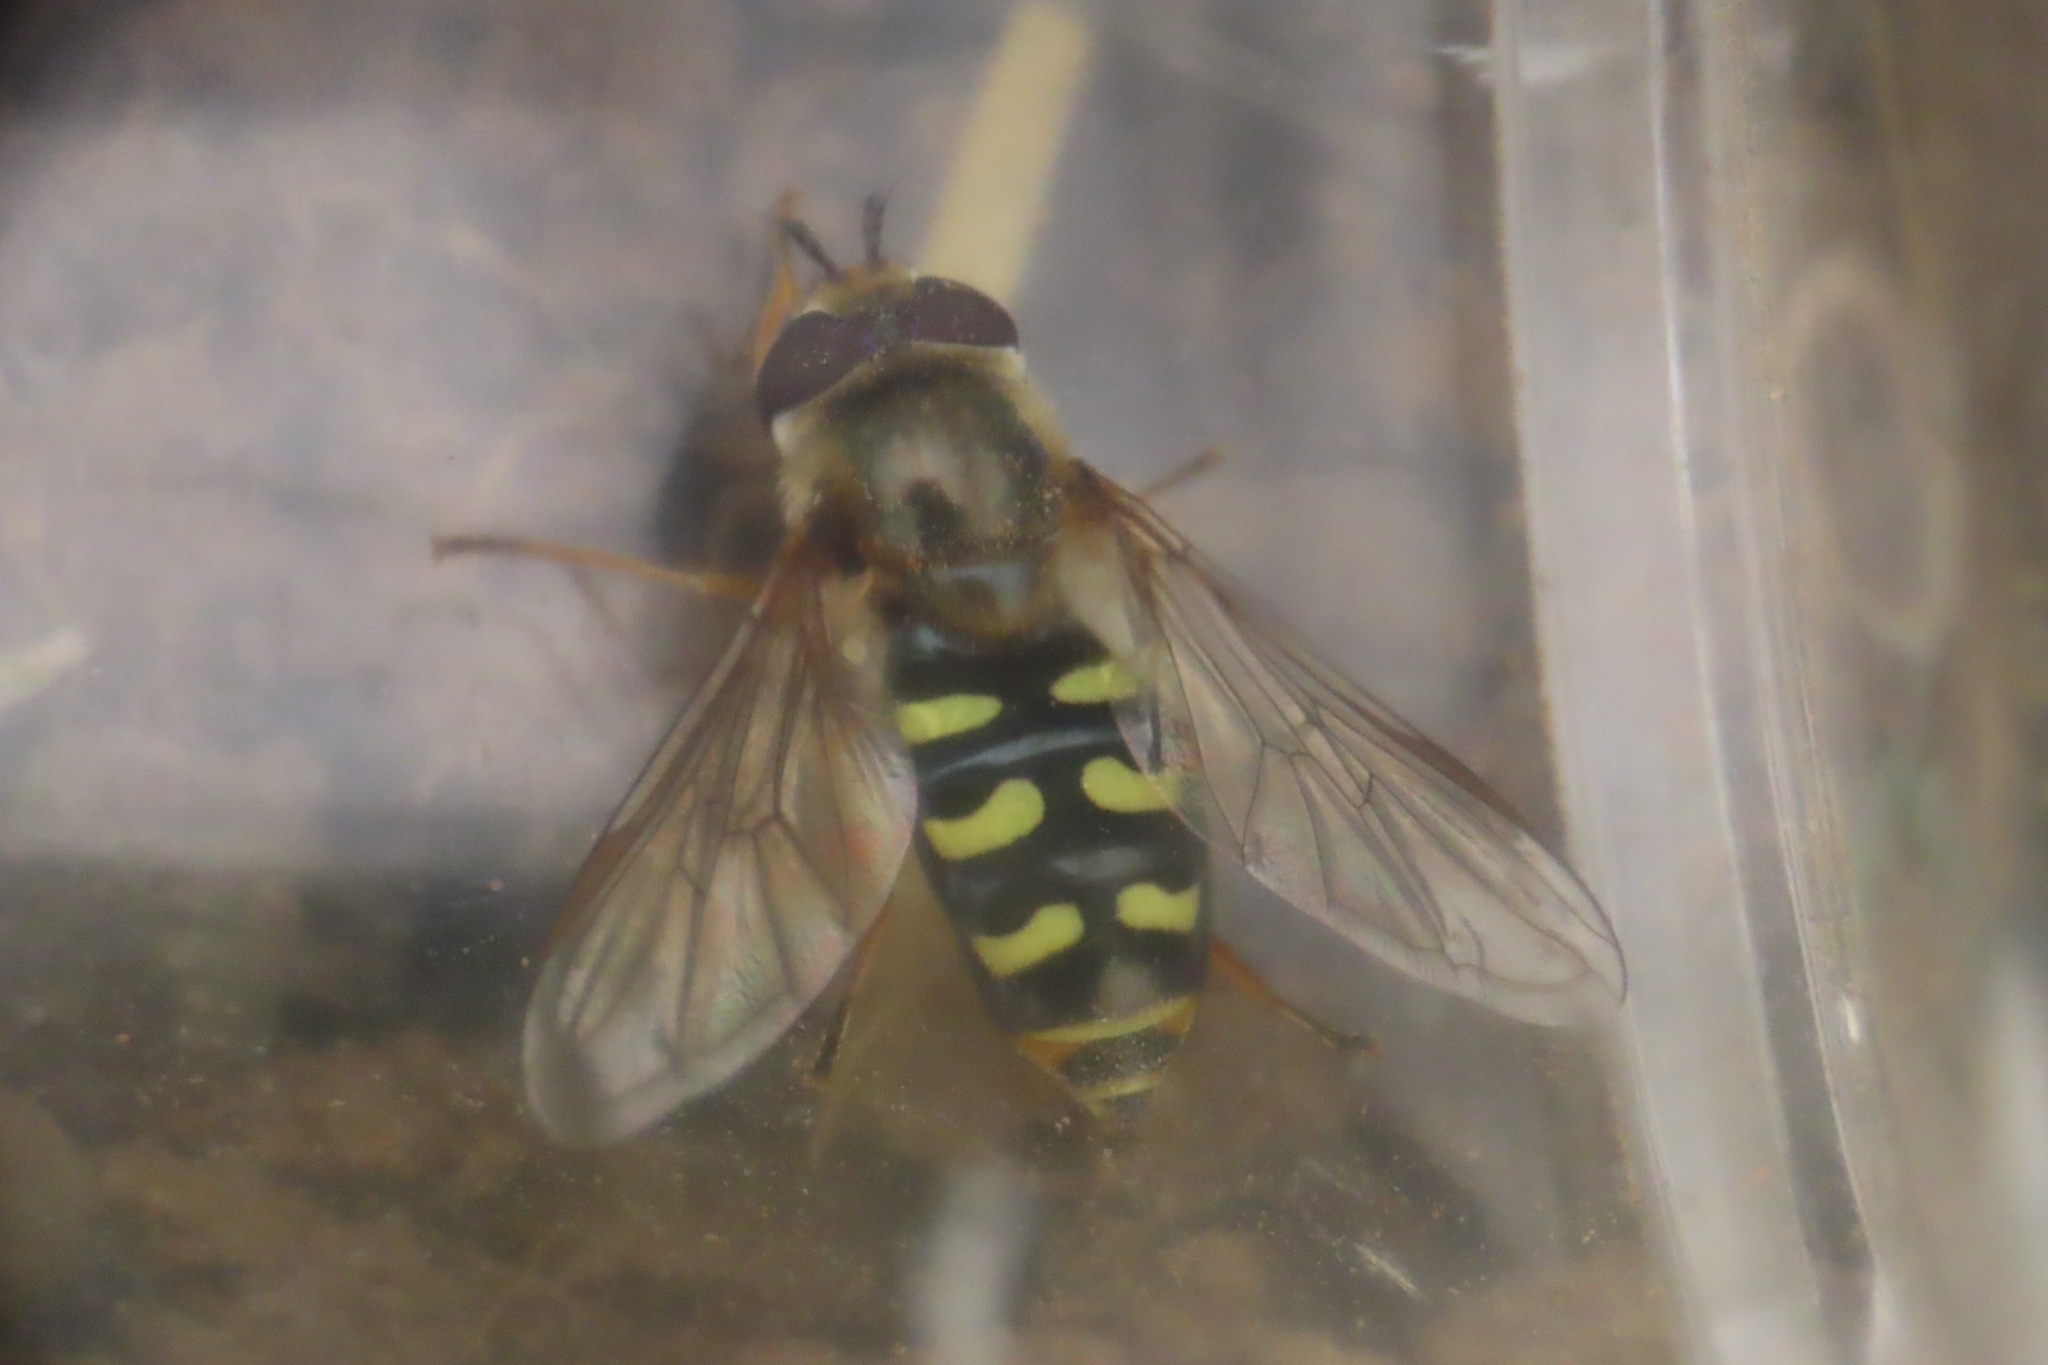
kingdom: Animalia
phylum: Arthropoda
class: Insecta
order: Diptera
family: Syrphidae
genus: Eupeodes
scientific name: Eupeodes
